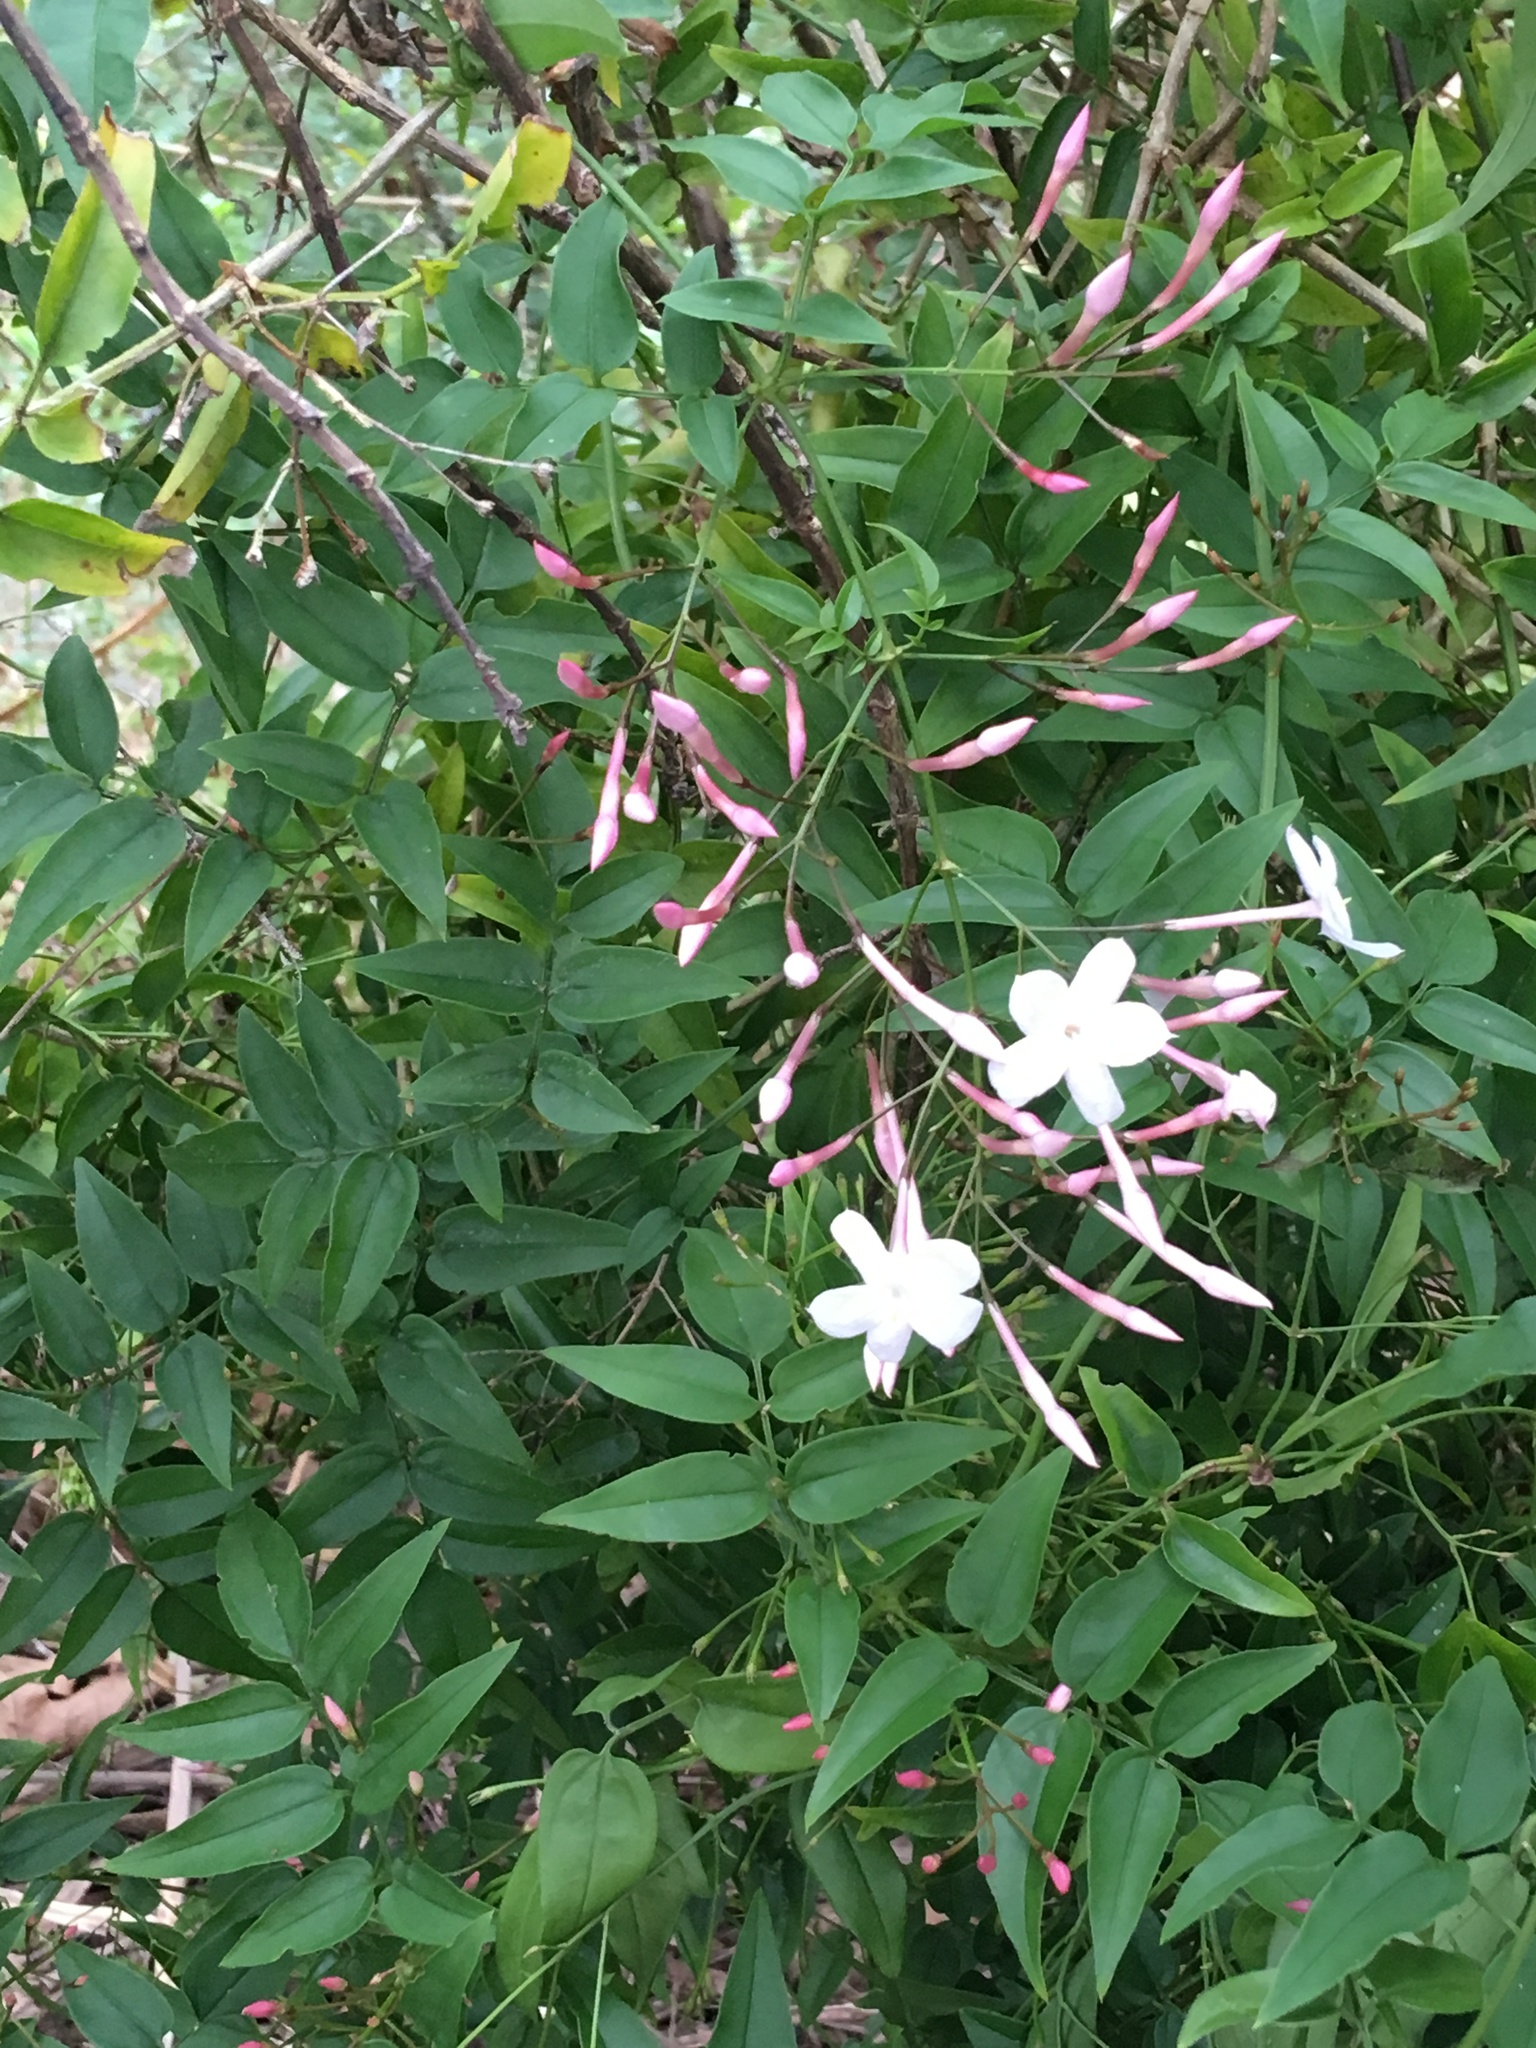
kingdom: Plantae
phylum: Tracheophyta
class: Magnoliopsida
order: Lamiales
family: Oleaceae
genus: Jasminum
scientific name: Jasminum polyanthum
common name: Pink jasmine
